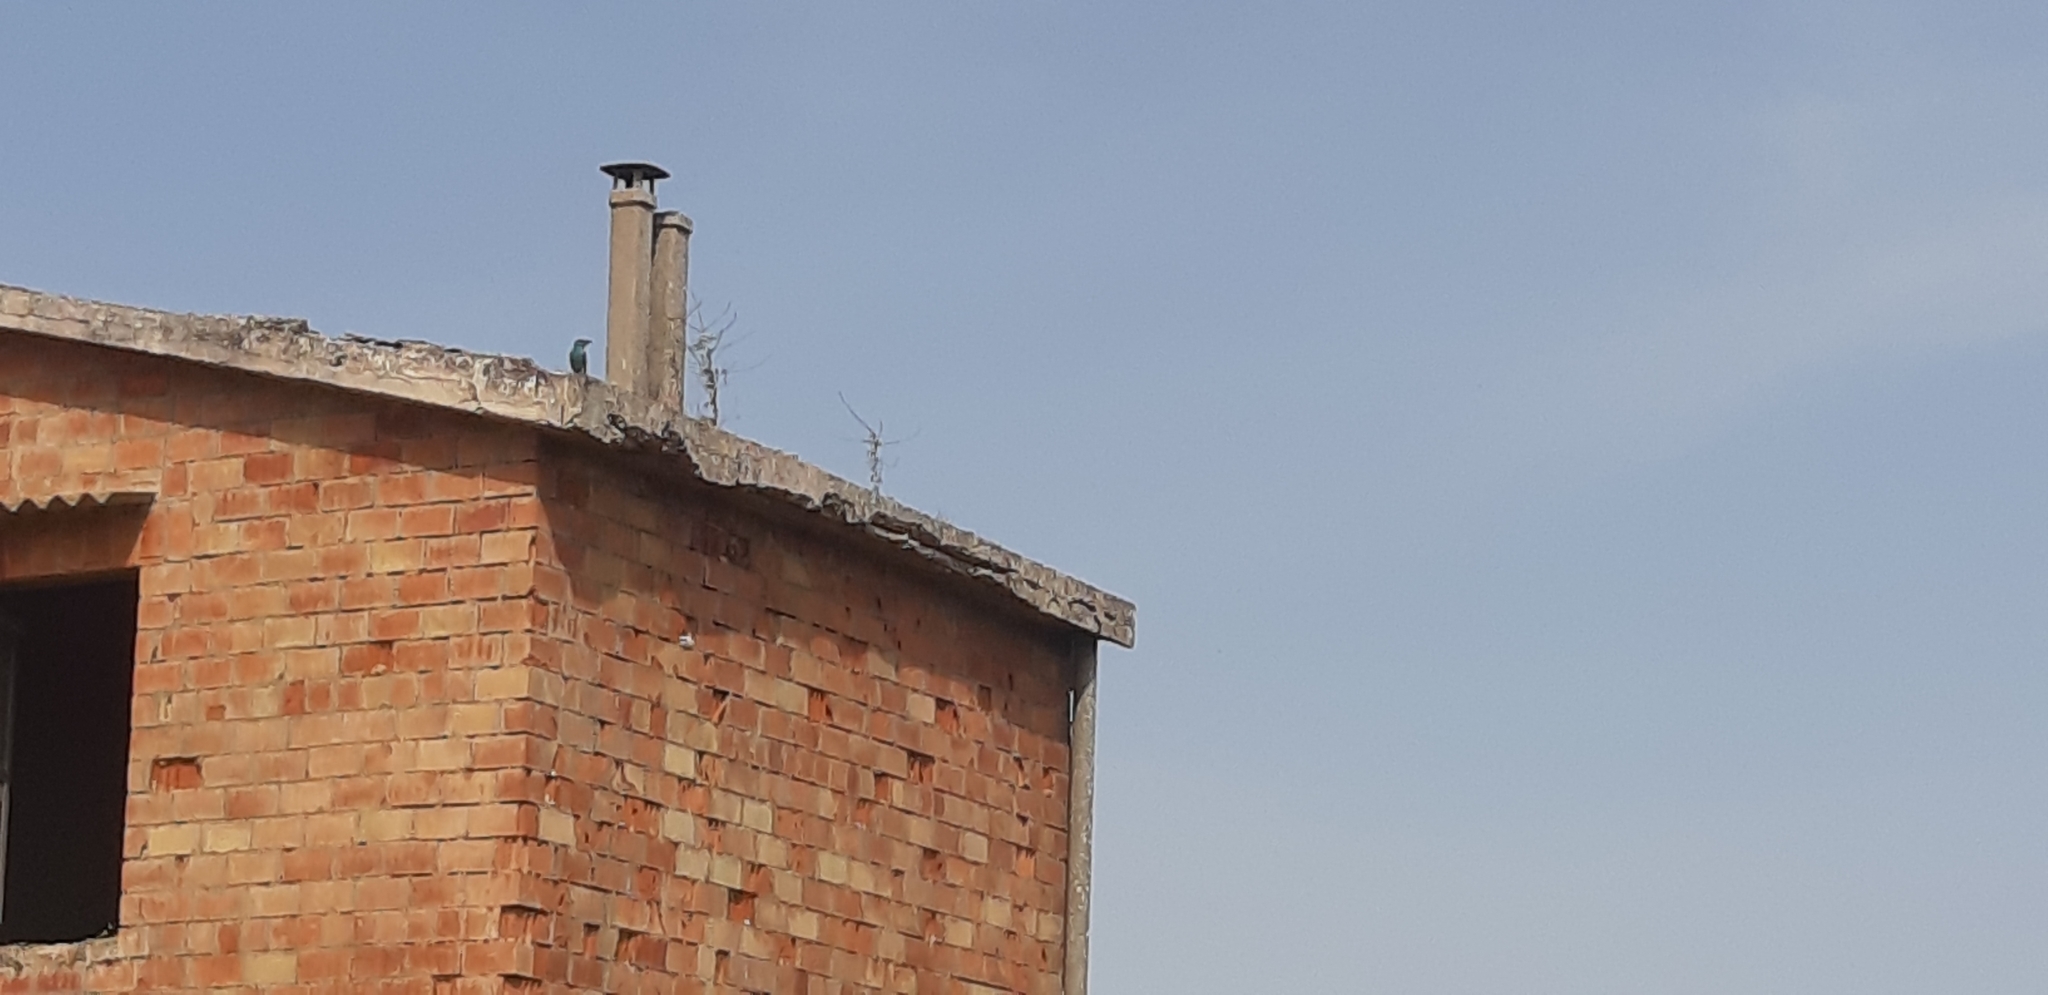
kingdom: Animalia
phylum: Chordata
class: Aves
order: Coraciiformes
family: Coraciidae
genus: Coracias
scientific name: Coracias garrulus
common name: European roller
